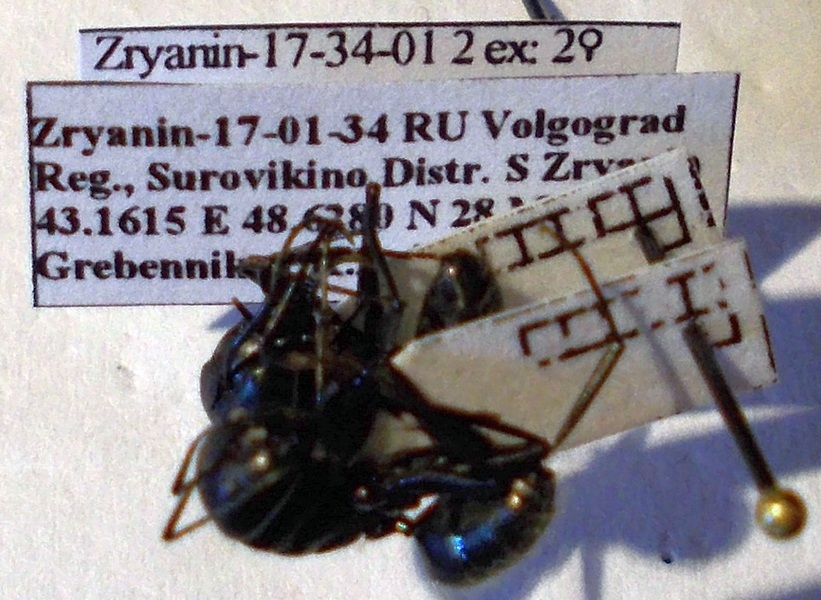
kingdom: Animalia
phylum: Arthropoda
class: Insecta
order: Hymenoptera
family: Formicidae
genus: Camponotus
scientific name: Camponotus vagus
